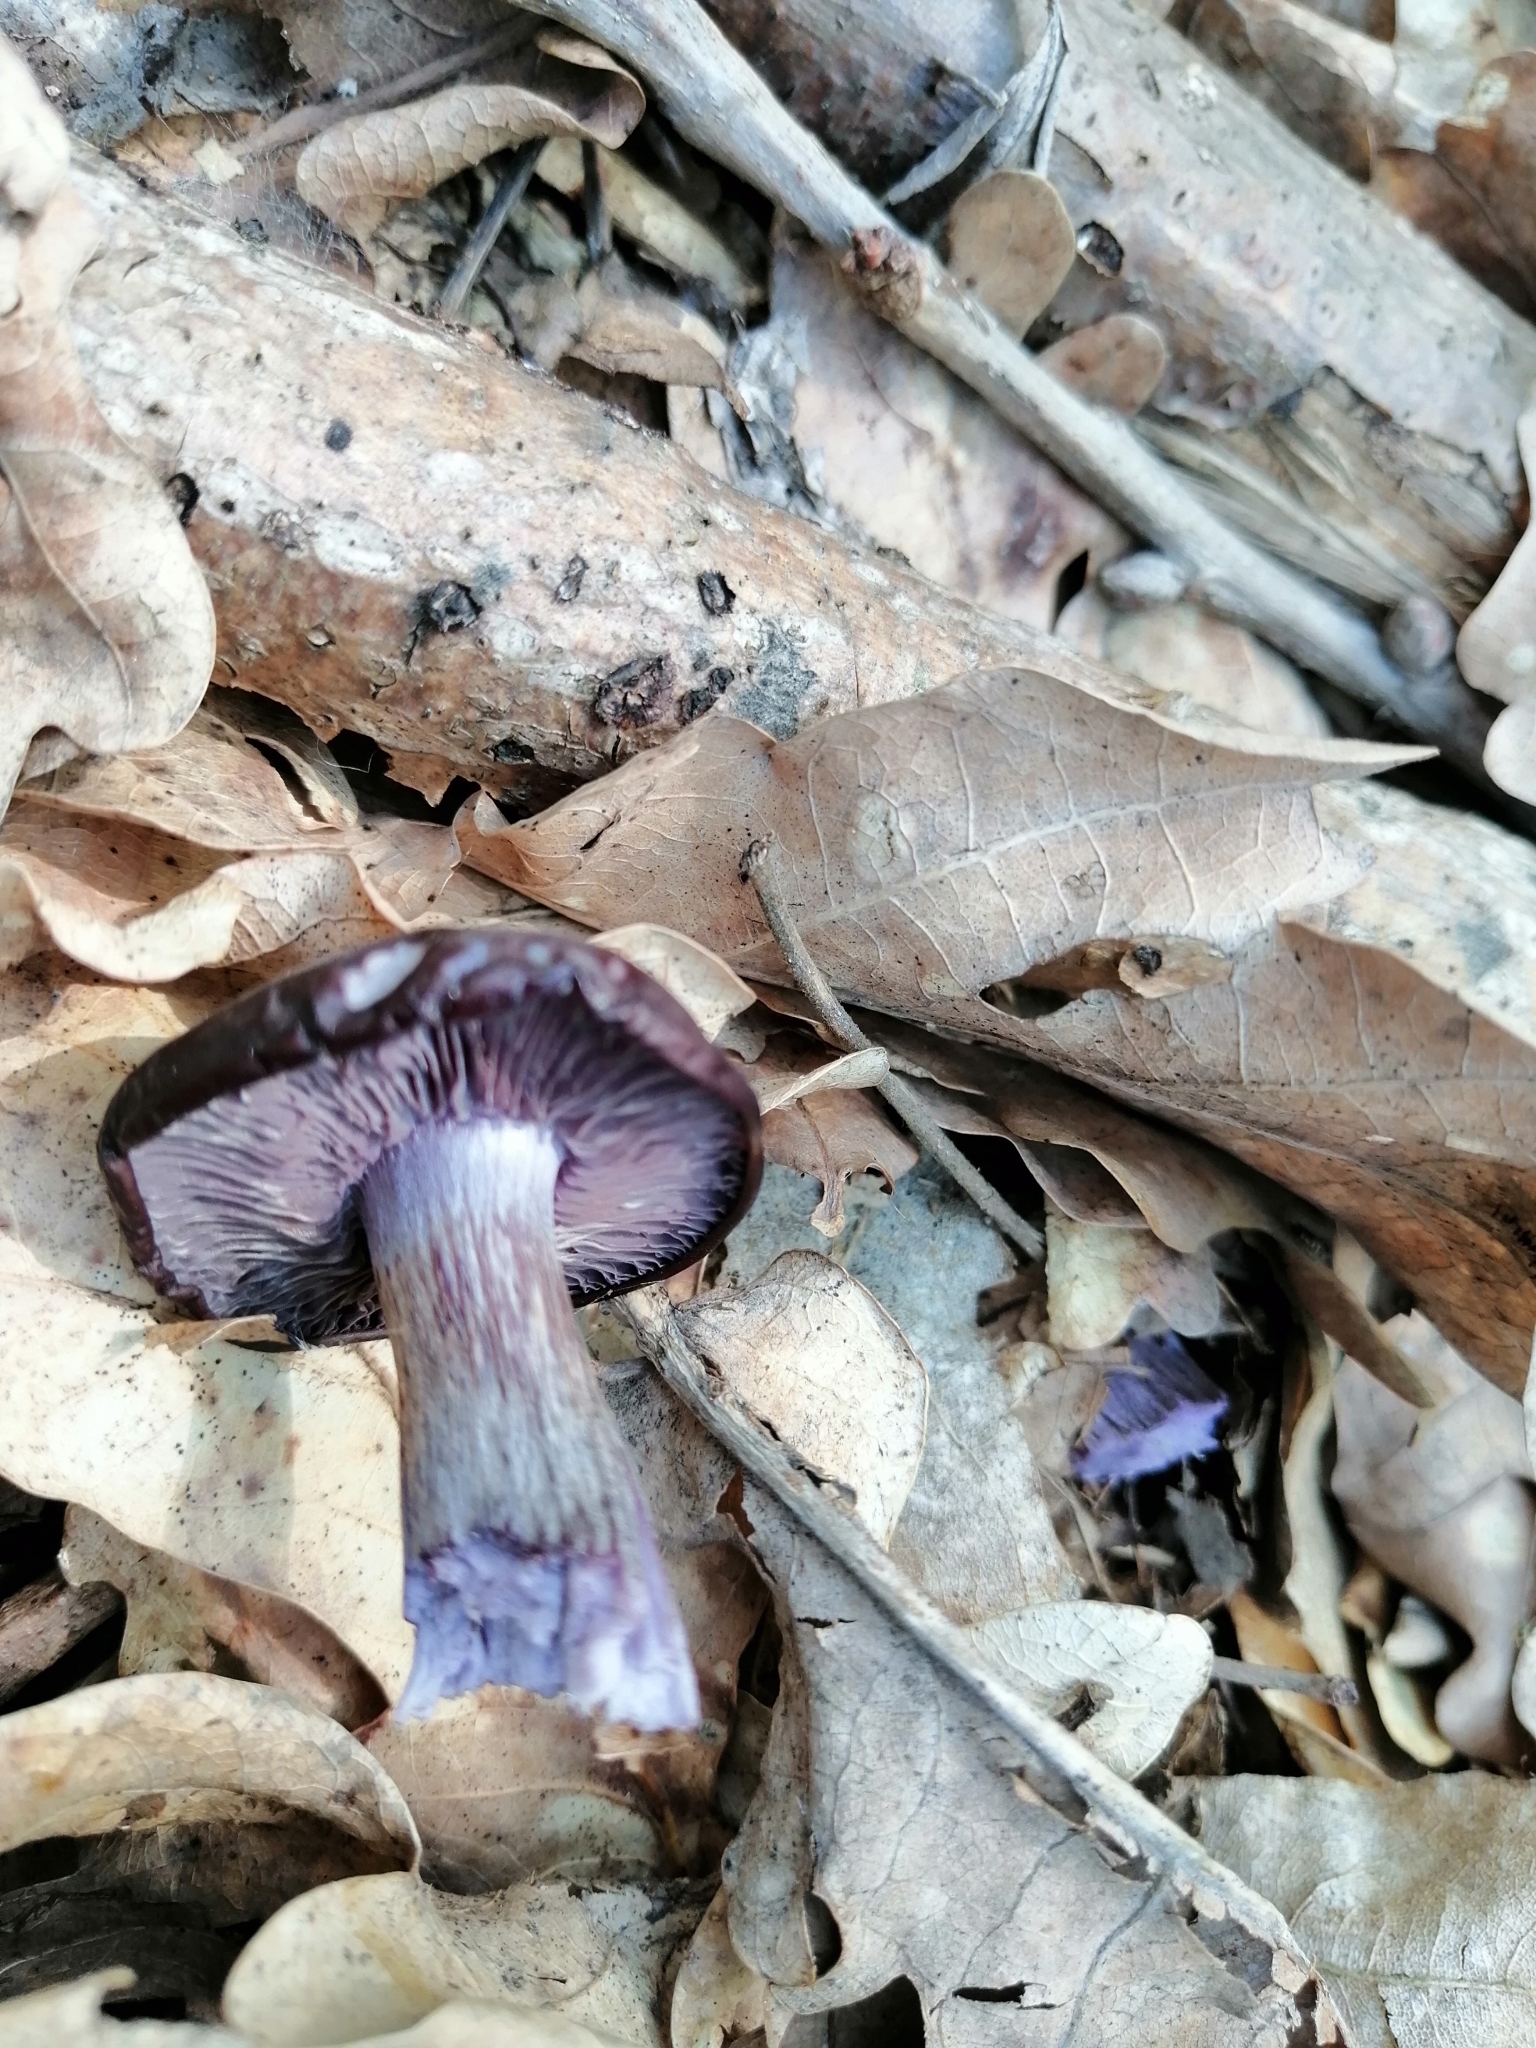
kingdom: Fungi
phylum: Basidiomycota
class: Agaricomycetes
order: Agaricales
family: Tricholomataceae
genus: Collybia
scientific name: Collybia
